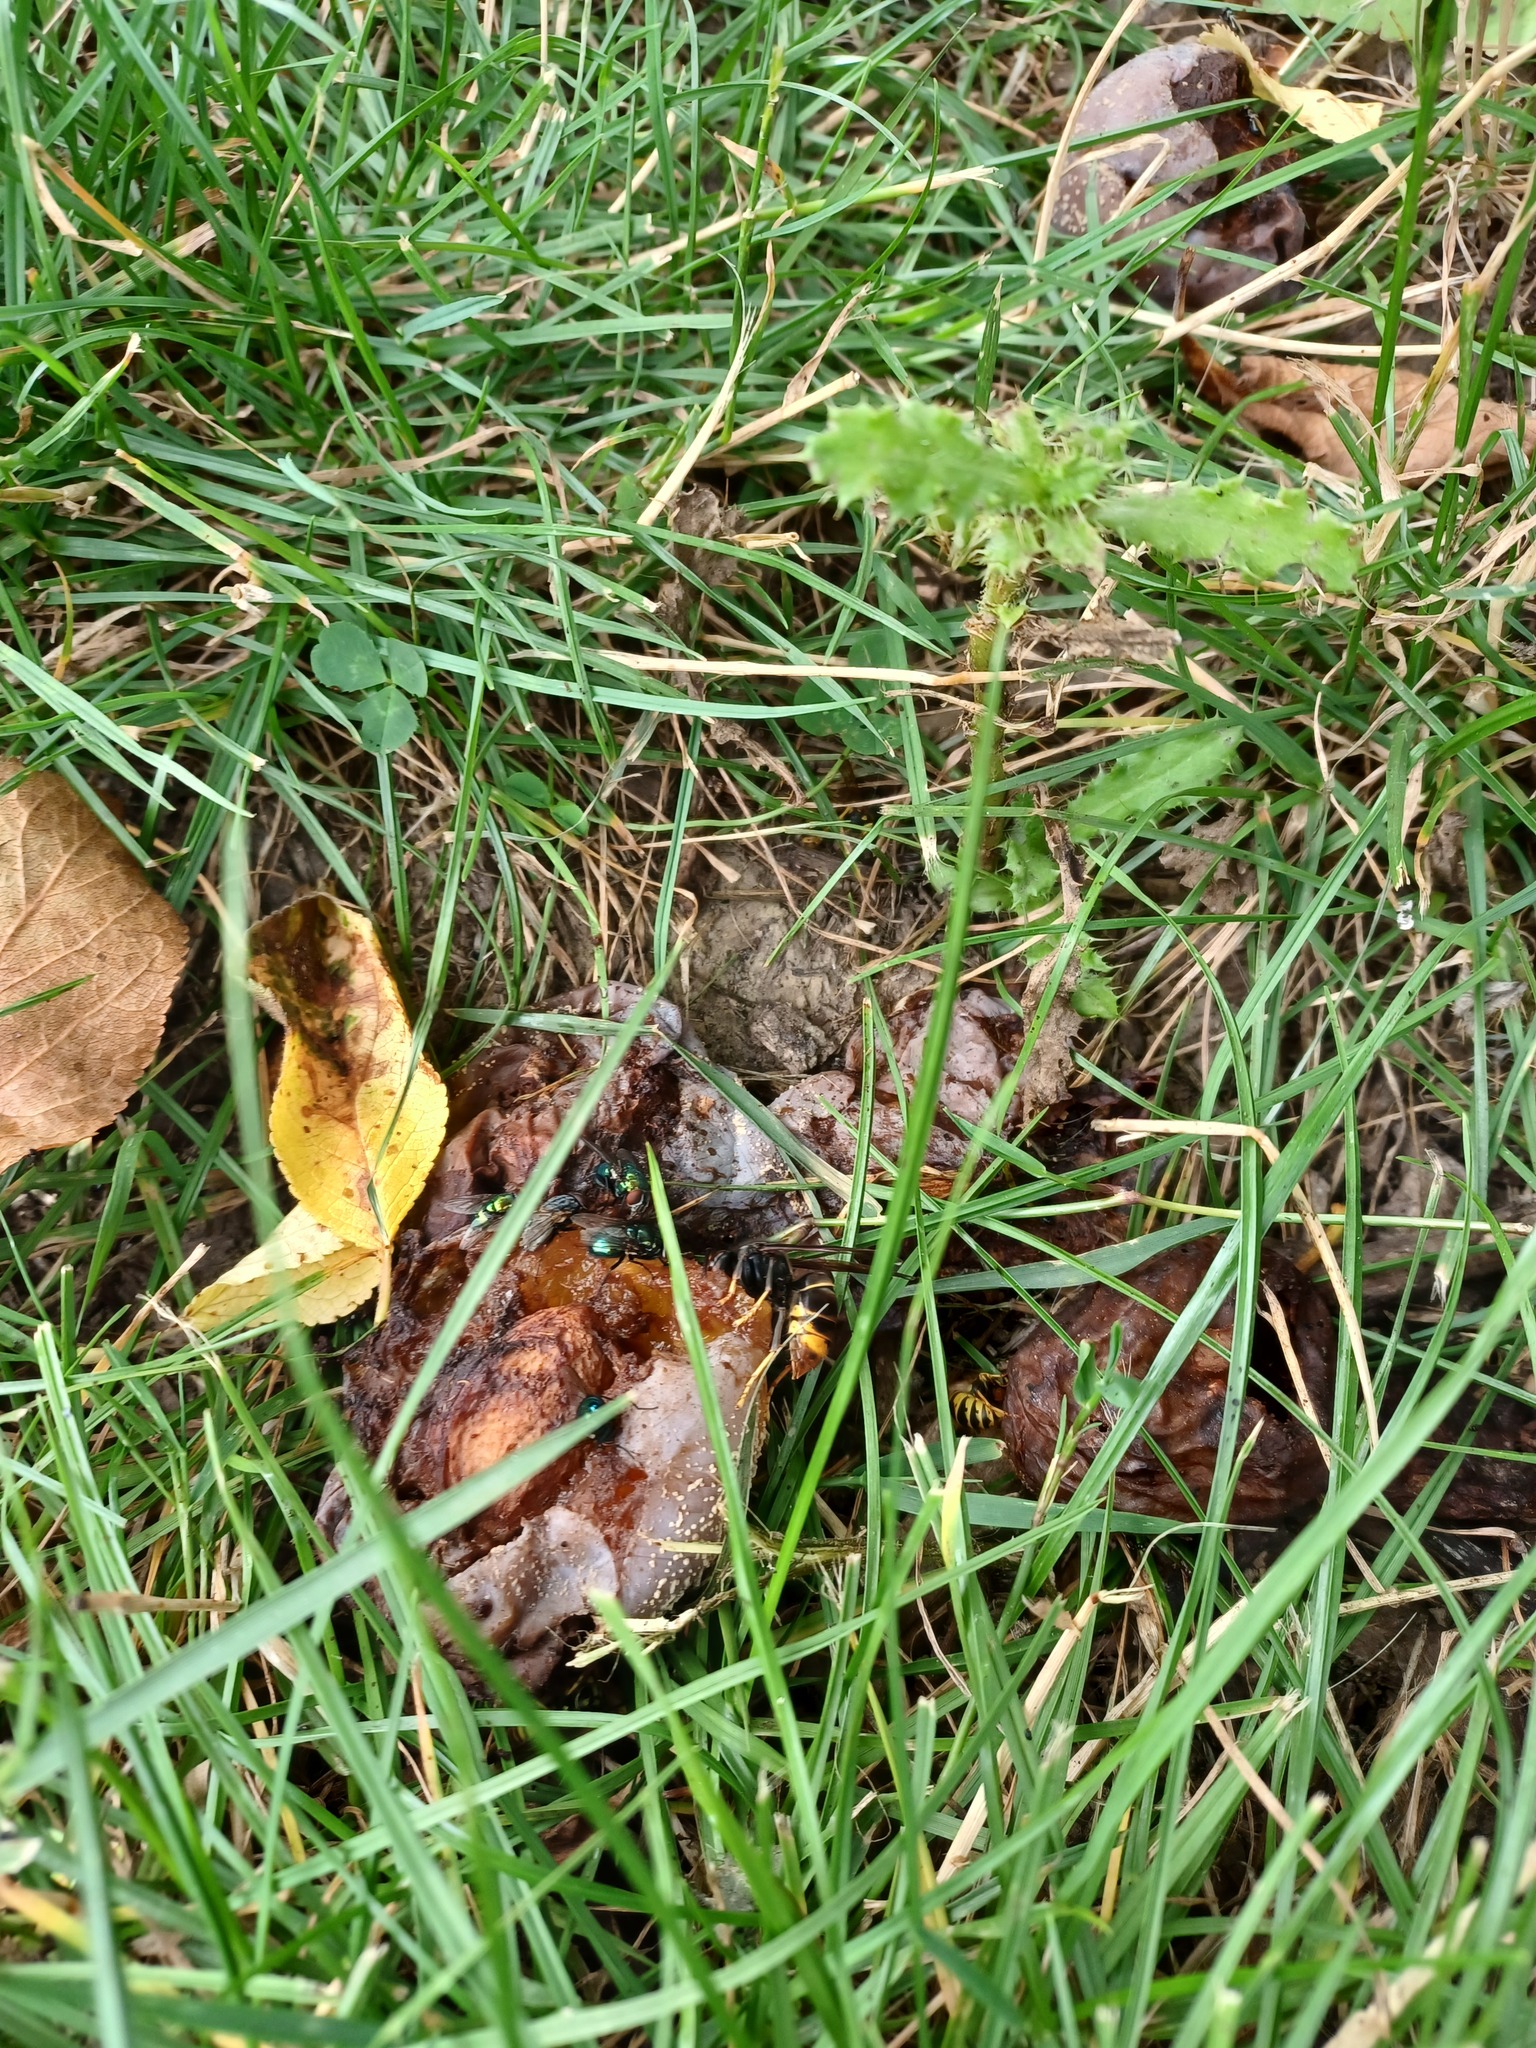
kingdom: Animalia
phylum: Arthropoda
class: Insecta
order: Hymenoptera
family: Vespidae
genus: Vespa
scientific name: Vespa velutina
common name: Asian hornet
